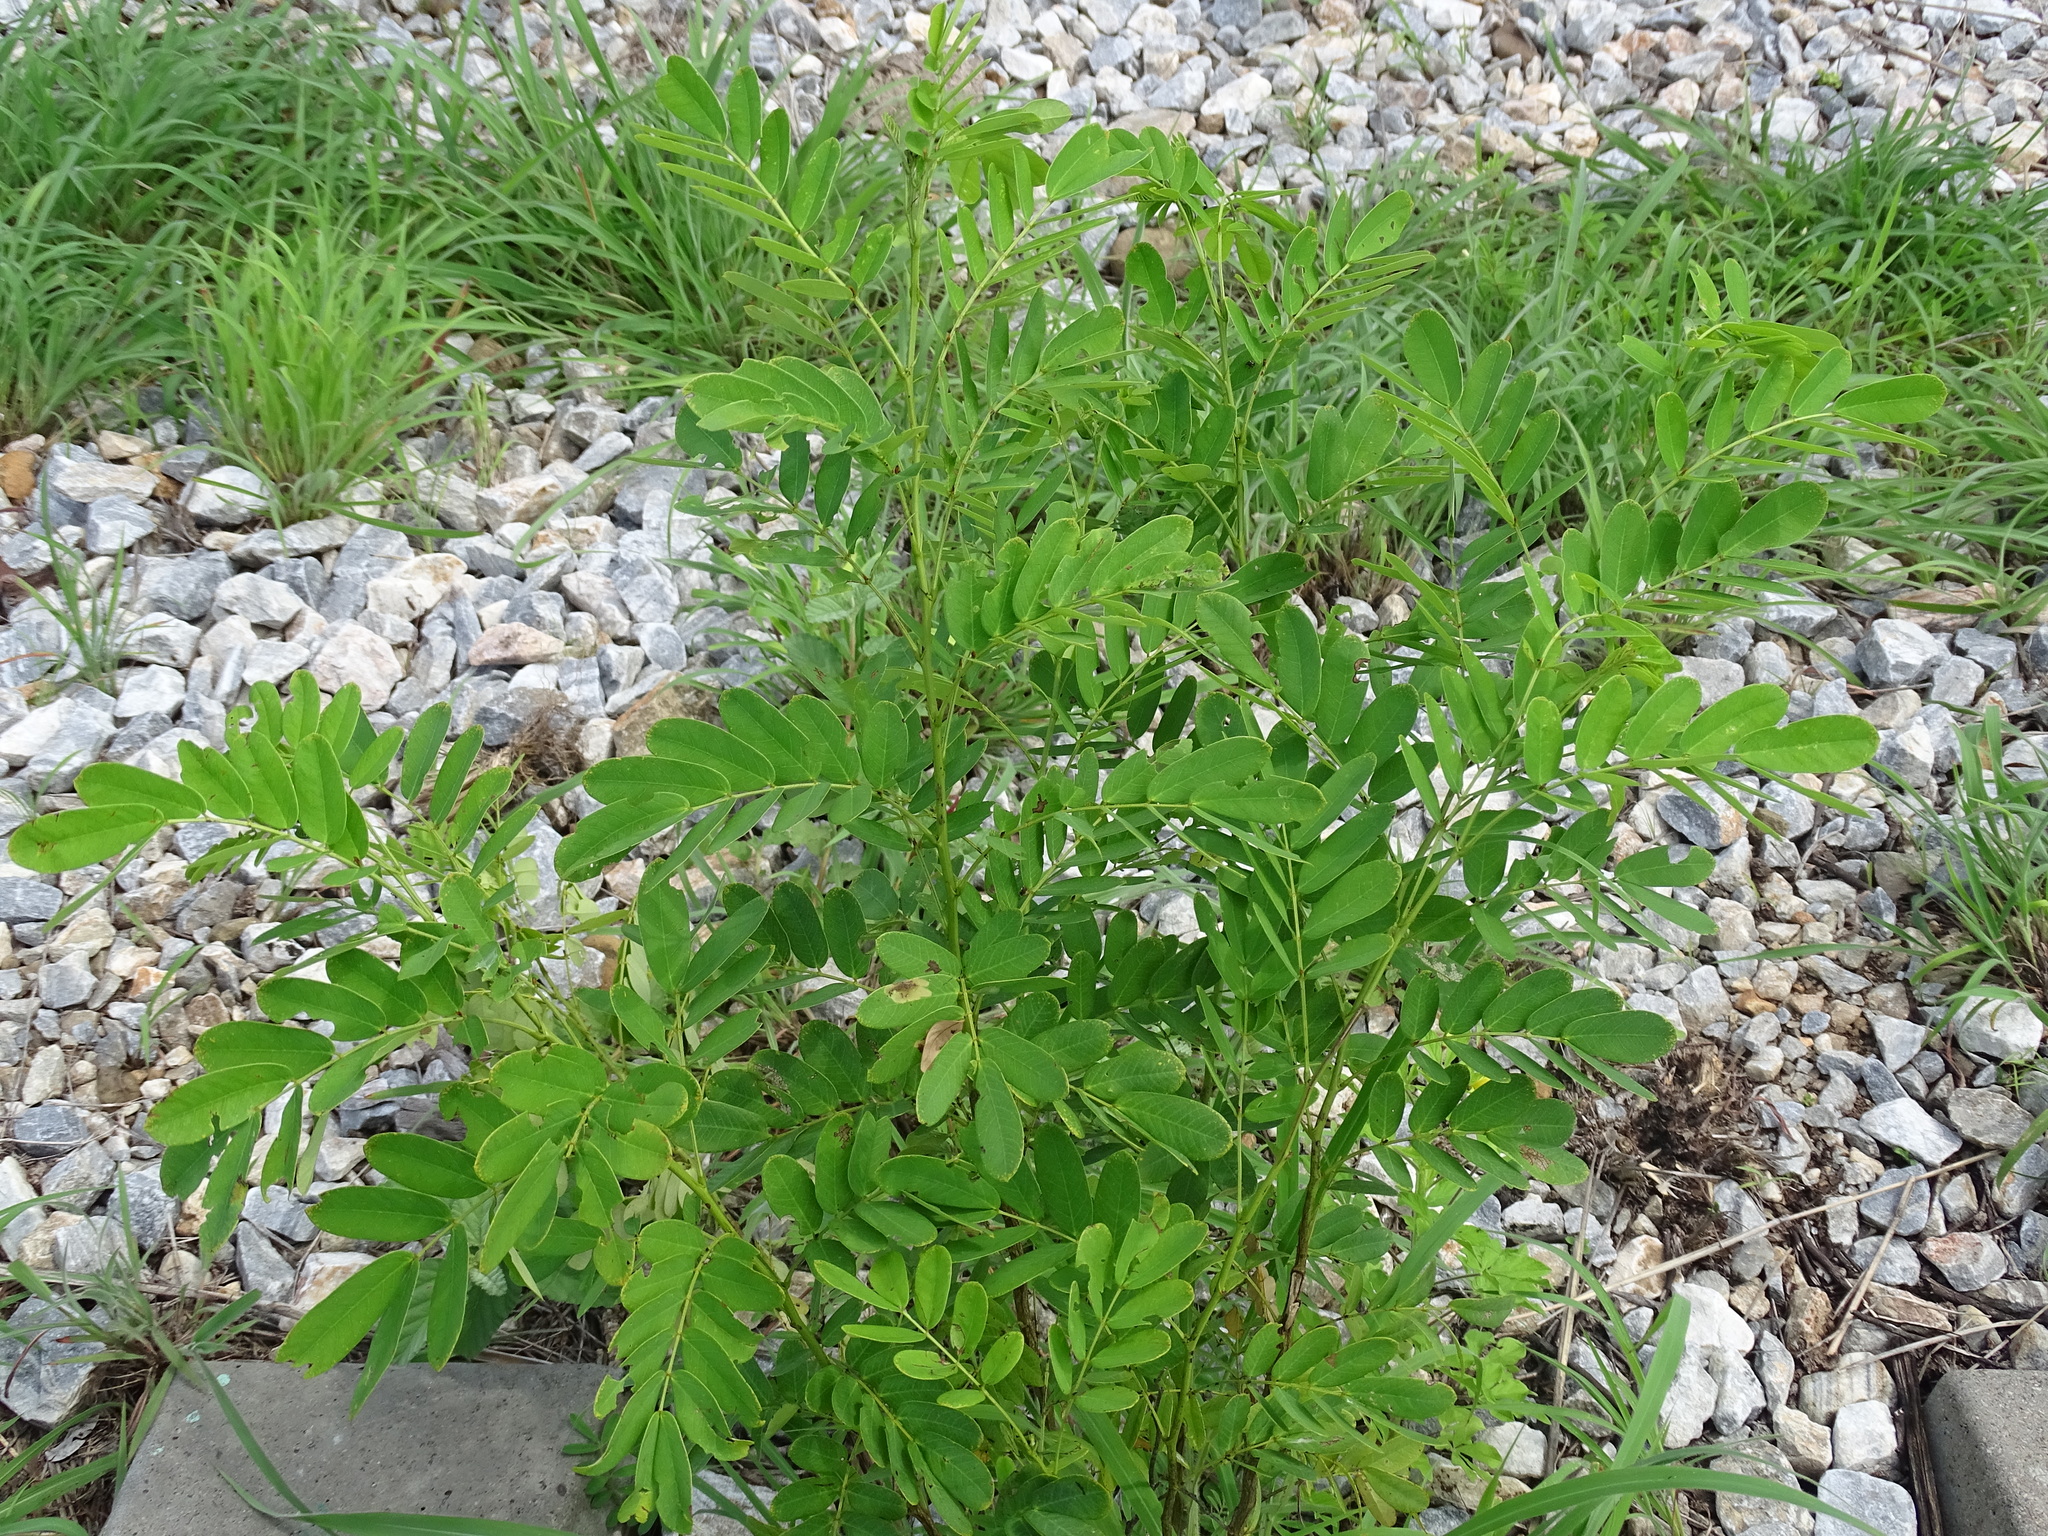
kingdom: Plantae
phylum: Tracheophyta
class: Magnoliopsida
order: Fabales
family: Fabaceae
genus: Senna
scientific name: Senna pallida
